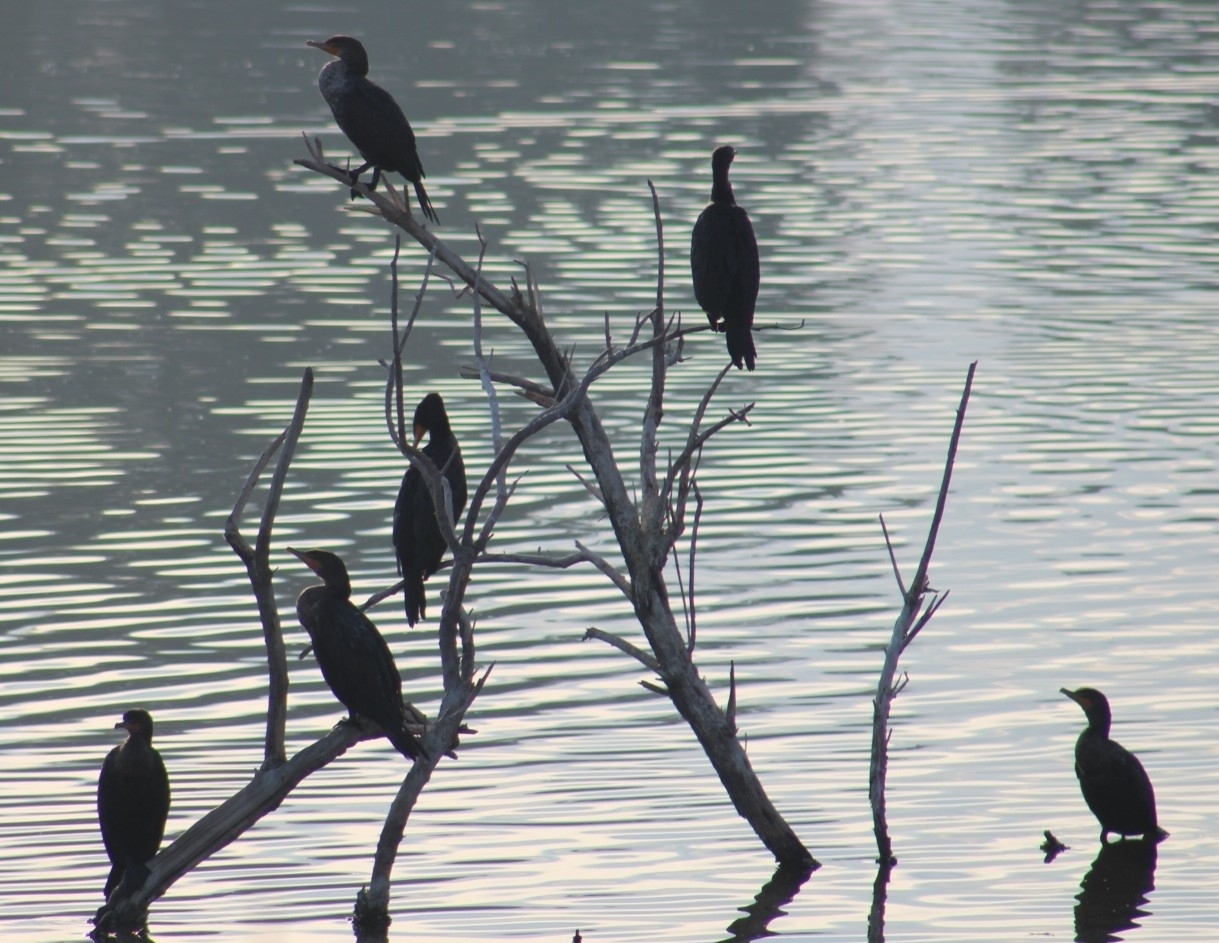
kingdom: Animalia
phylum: Chordata
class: Aves
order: Suliformes
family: Phalacrocoracidae
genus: Phalacrocorax
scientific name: Phalacrocorax auritus
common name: Double-crested cormorant
